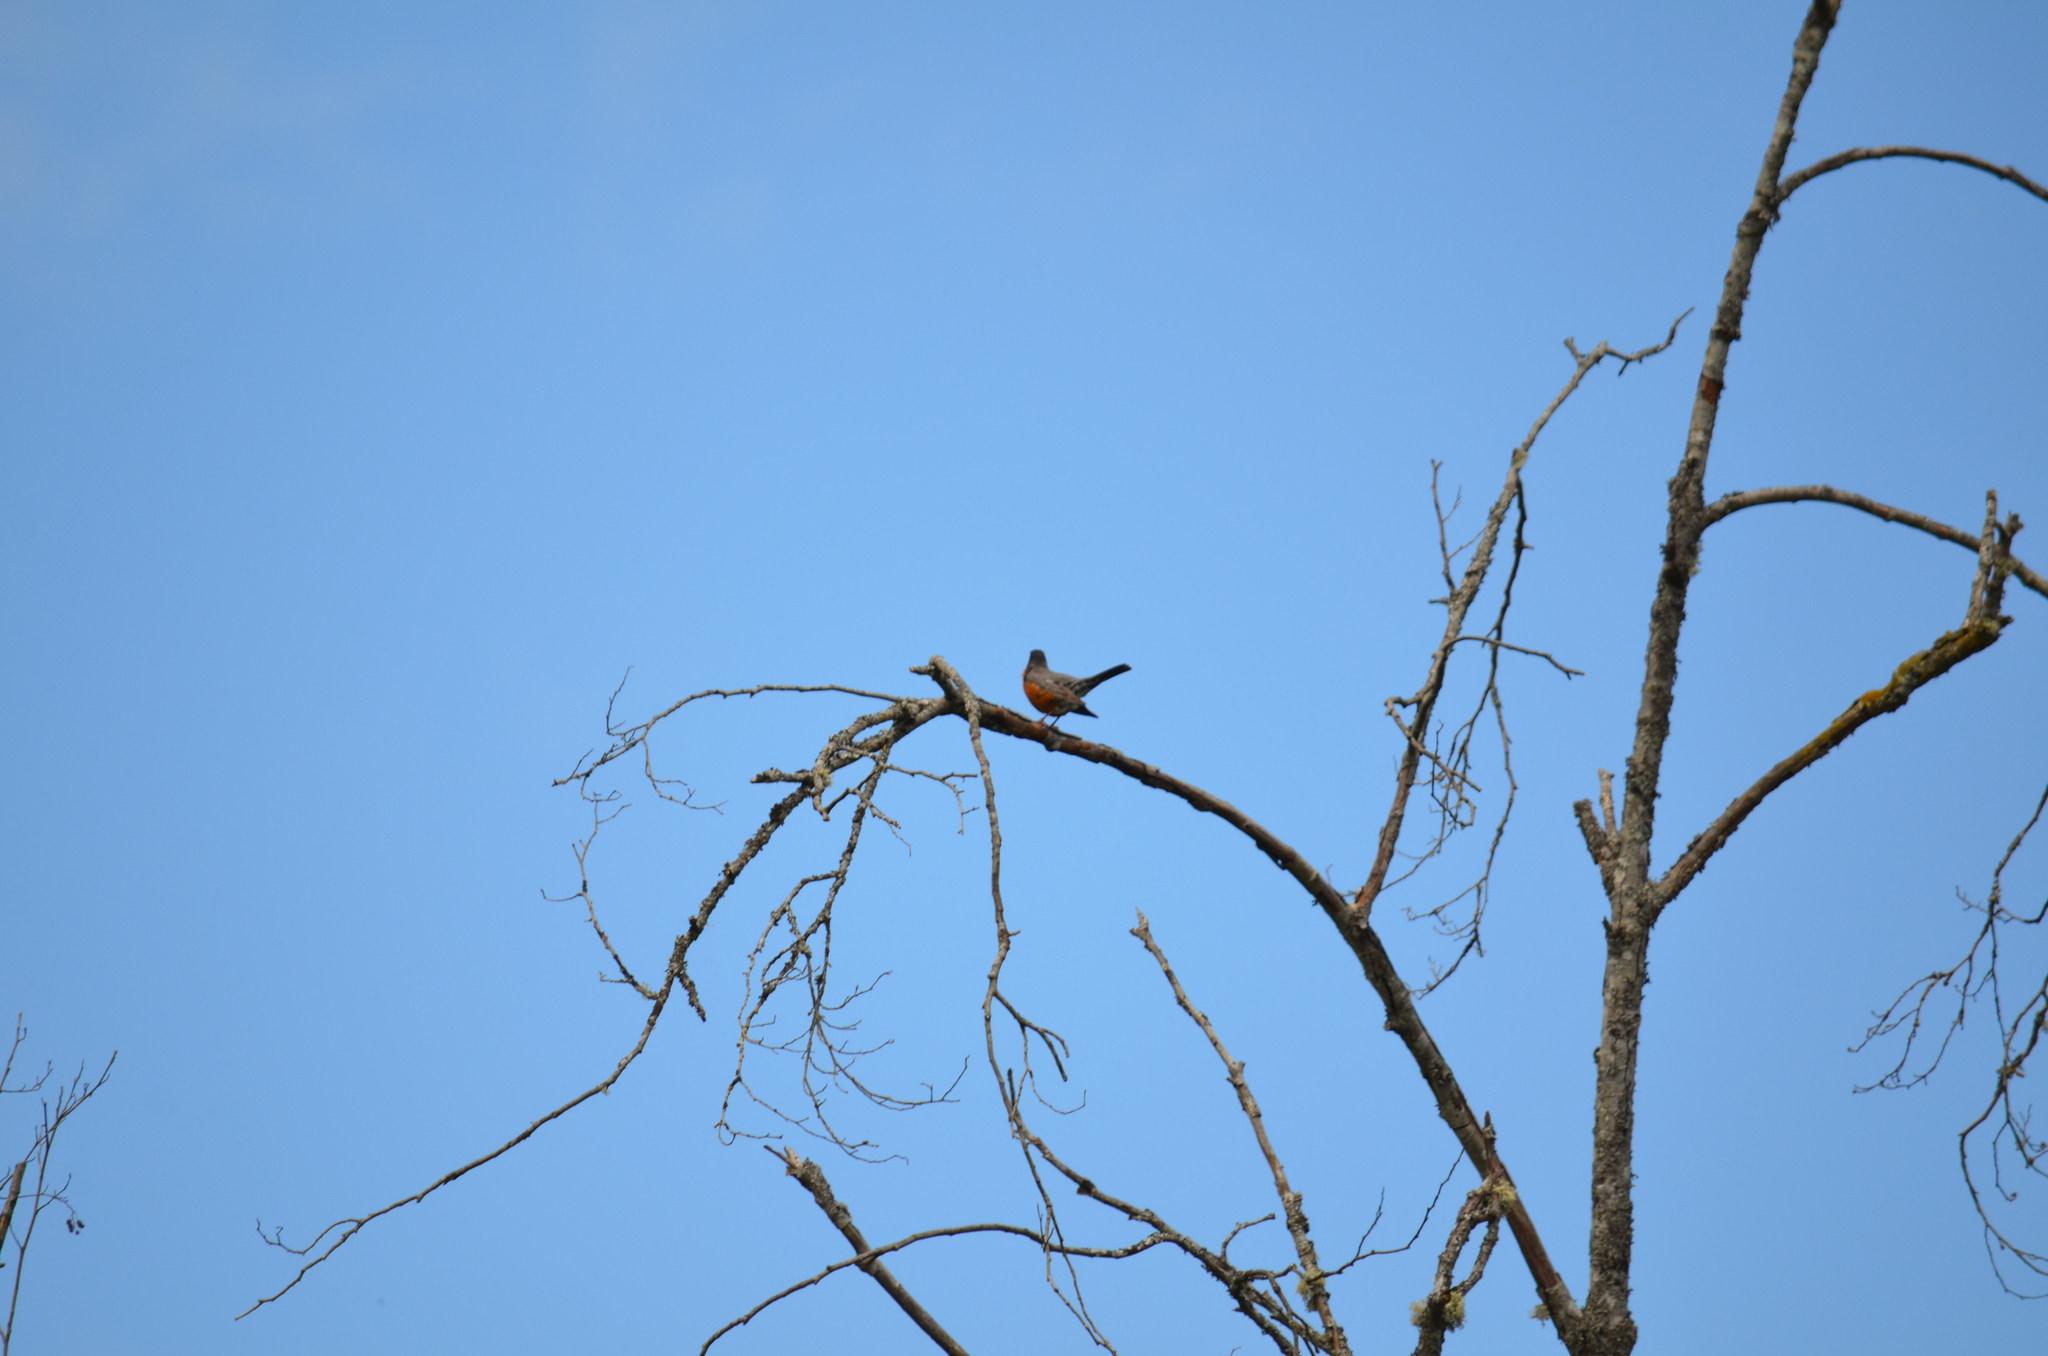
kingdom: Animalia
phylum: Chordata
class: Aves
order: Passeriformes
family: Turdidae
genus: Turdus
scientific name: Turdus migratorius
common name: American robin
